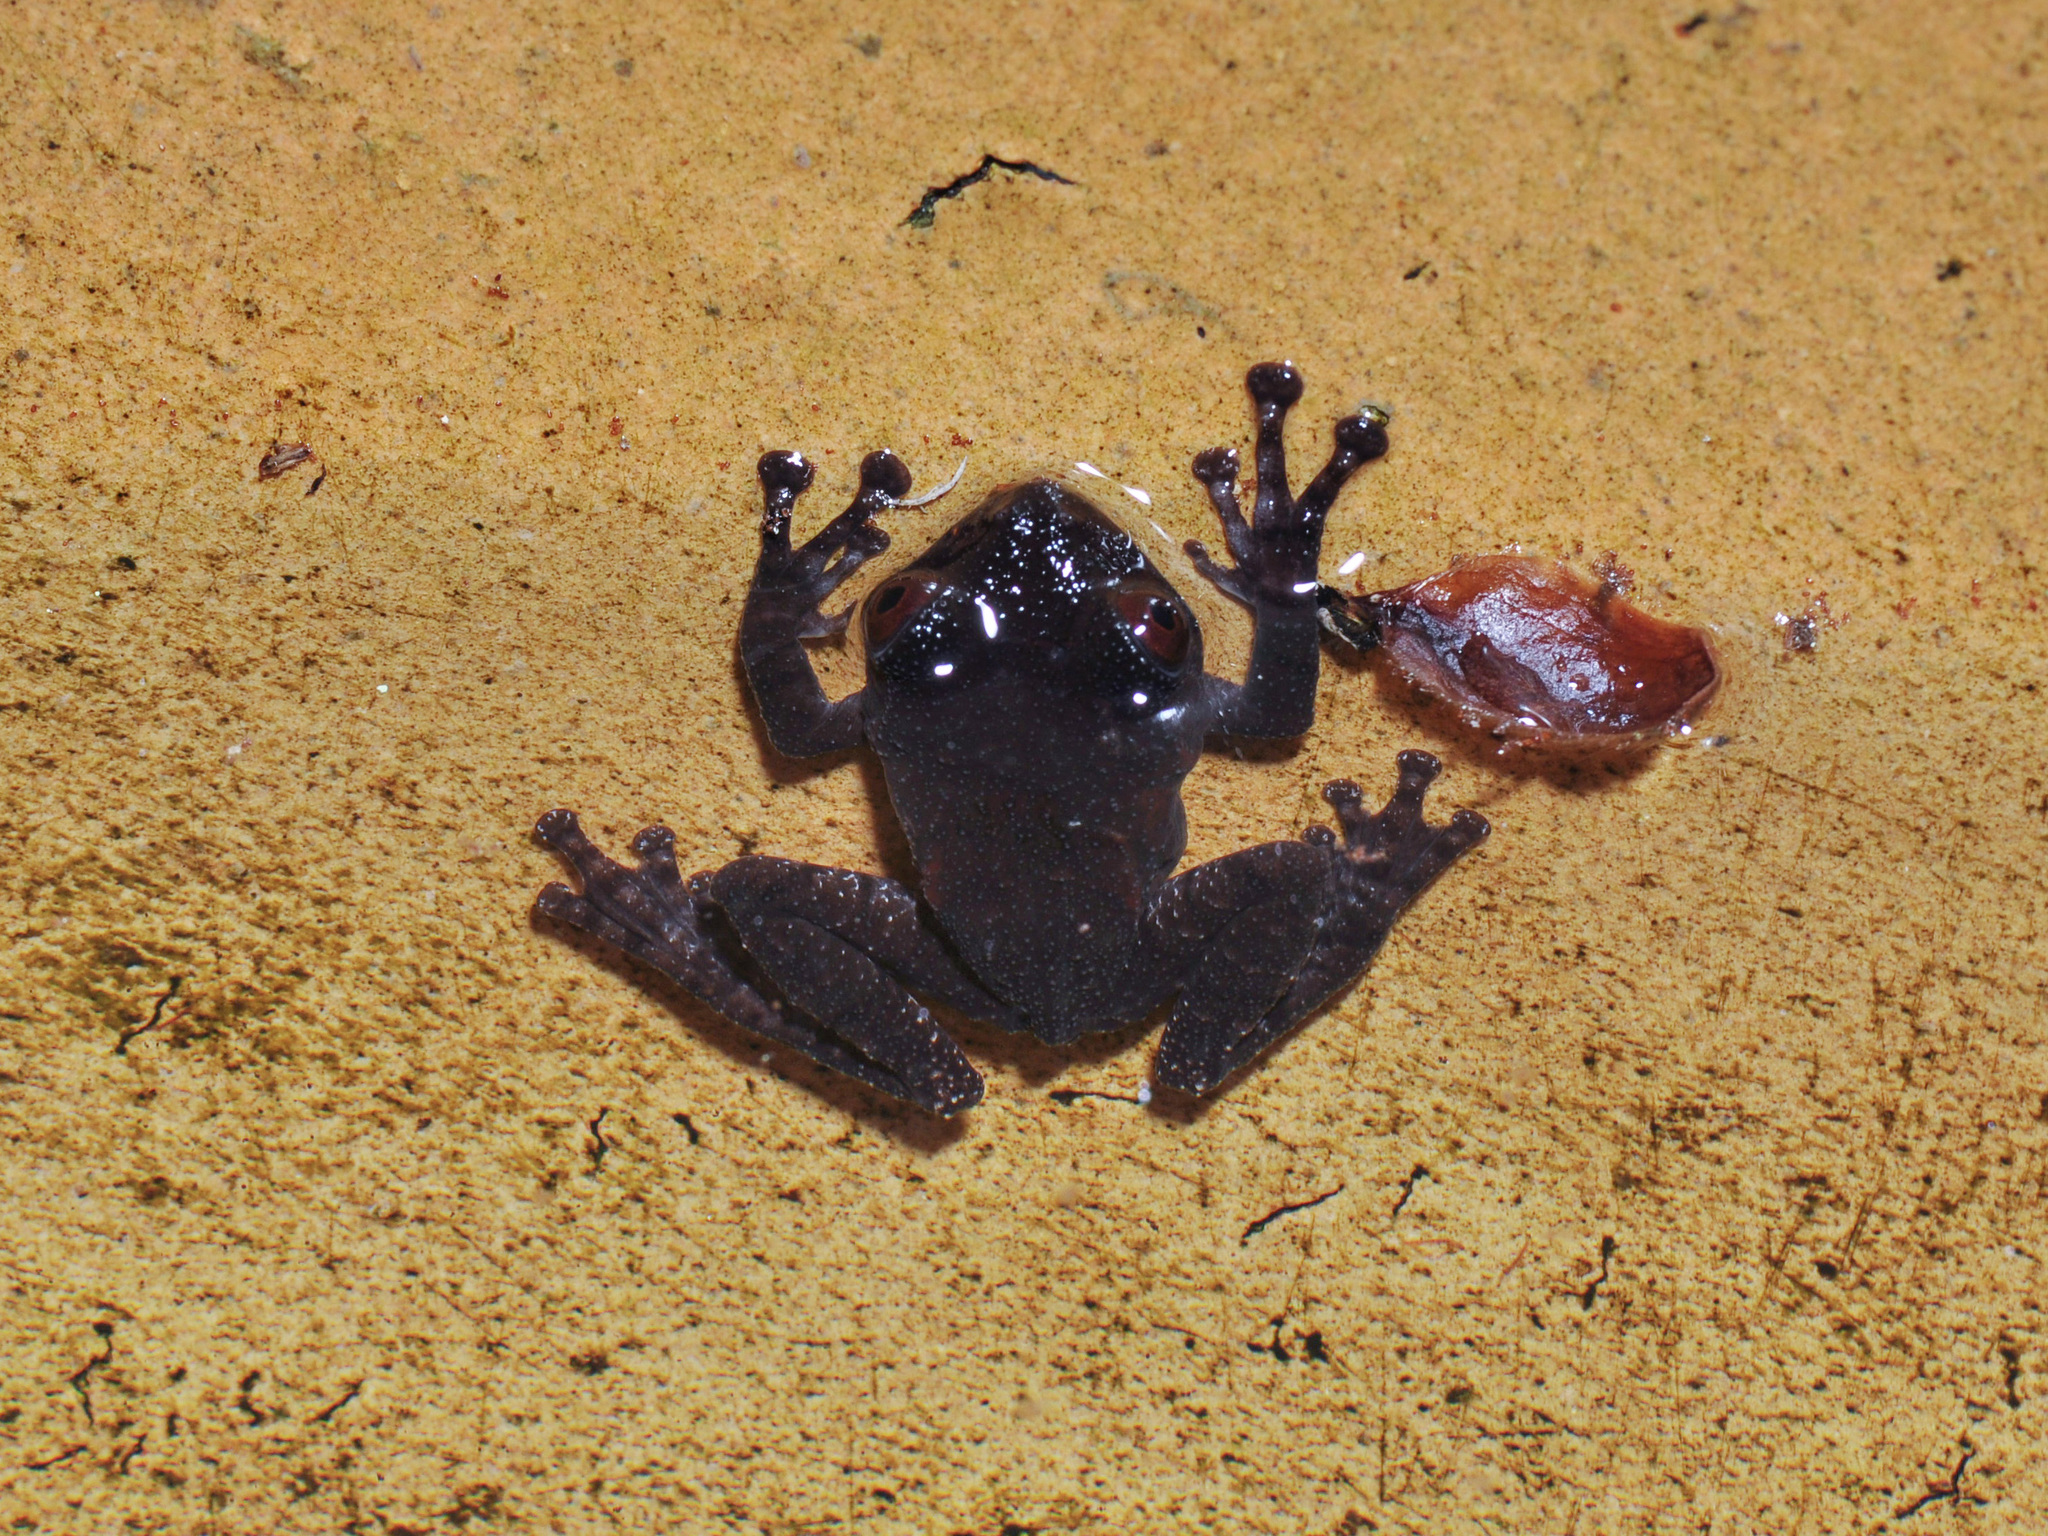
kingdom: Animalia
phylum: Chordata
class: Amphibia
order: Anura
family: Rhacophoridae
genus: Theloderma
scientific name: Theloderma asperum
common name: Pied wart frog
